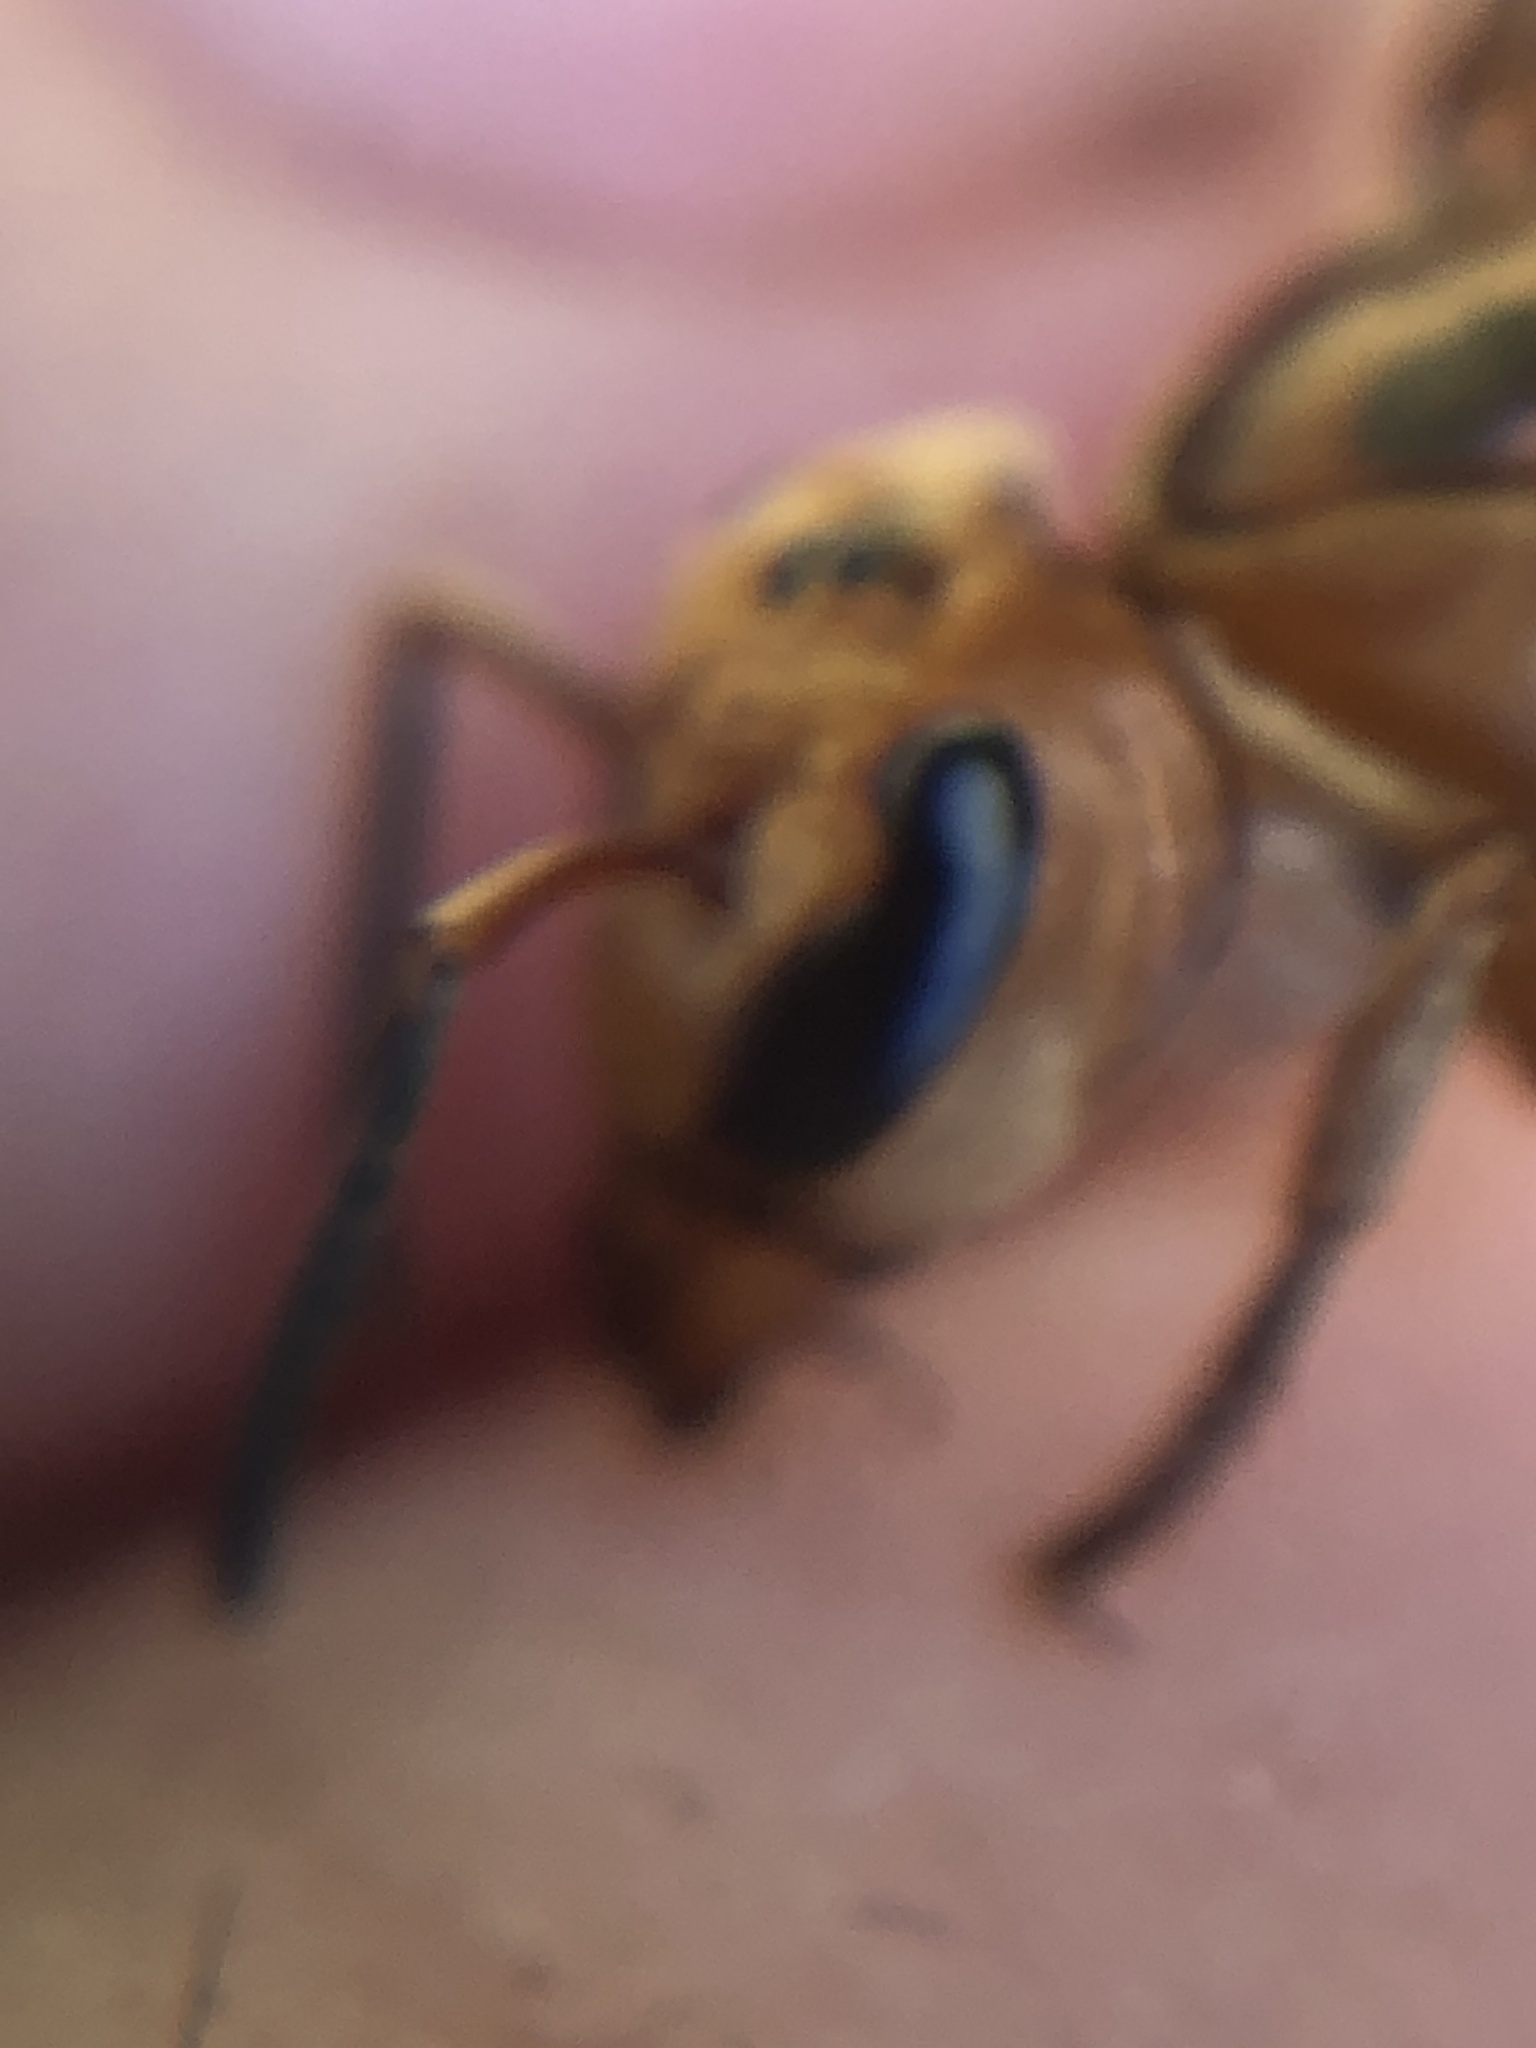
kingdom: Animalia
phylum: Arthropoda
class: Insecta
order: Hymenoptera
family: Vespidae
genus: Synoeca
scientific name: Synoeca virginea
